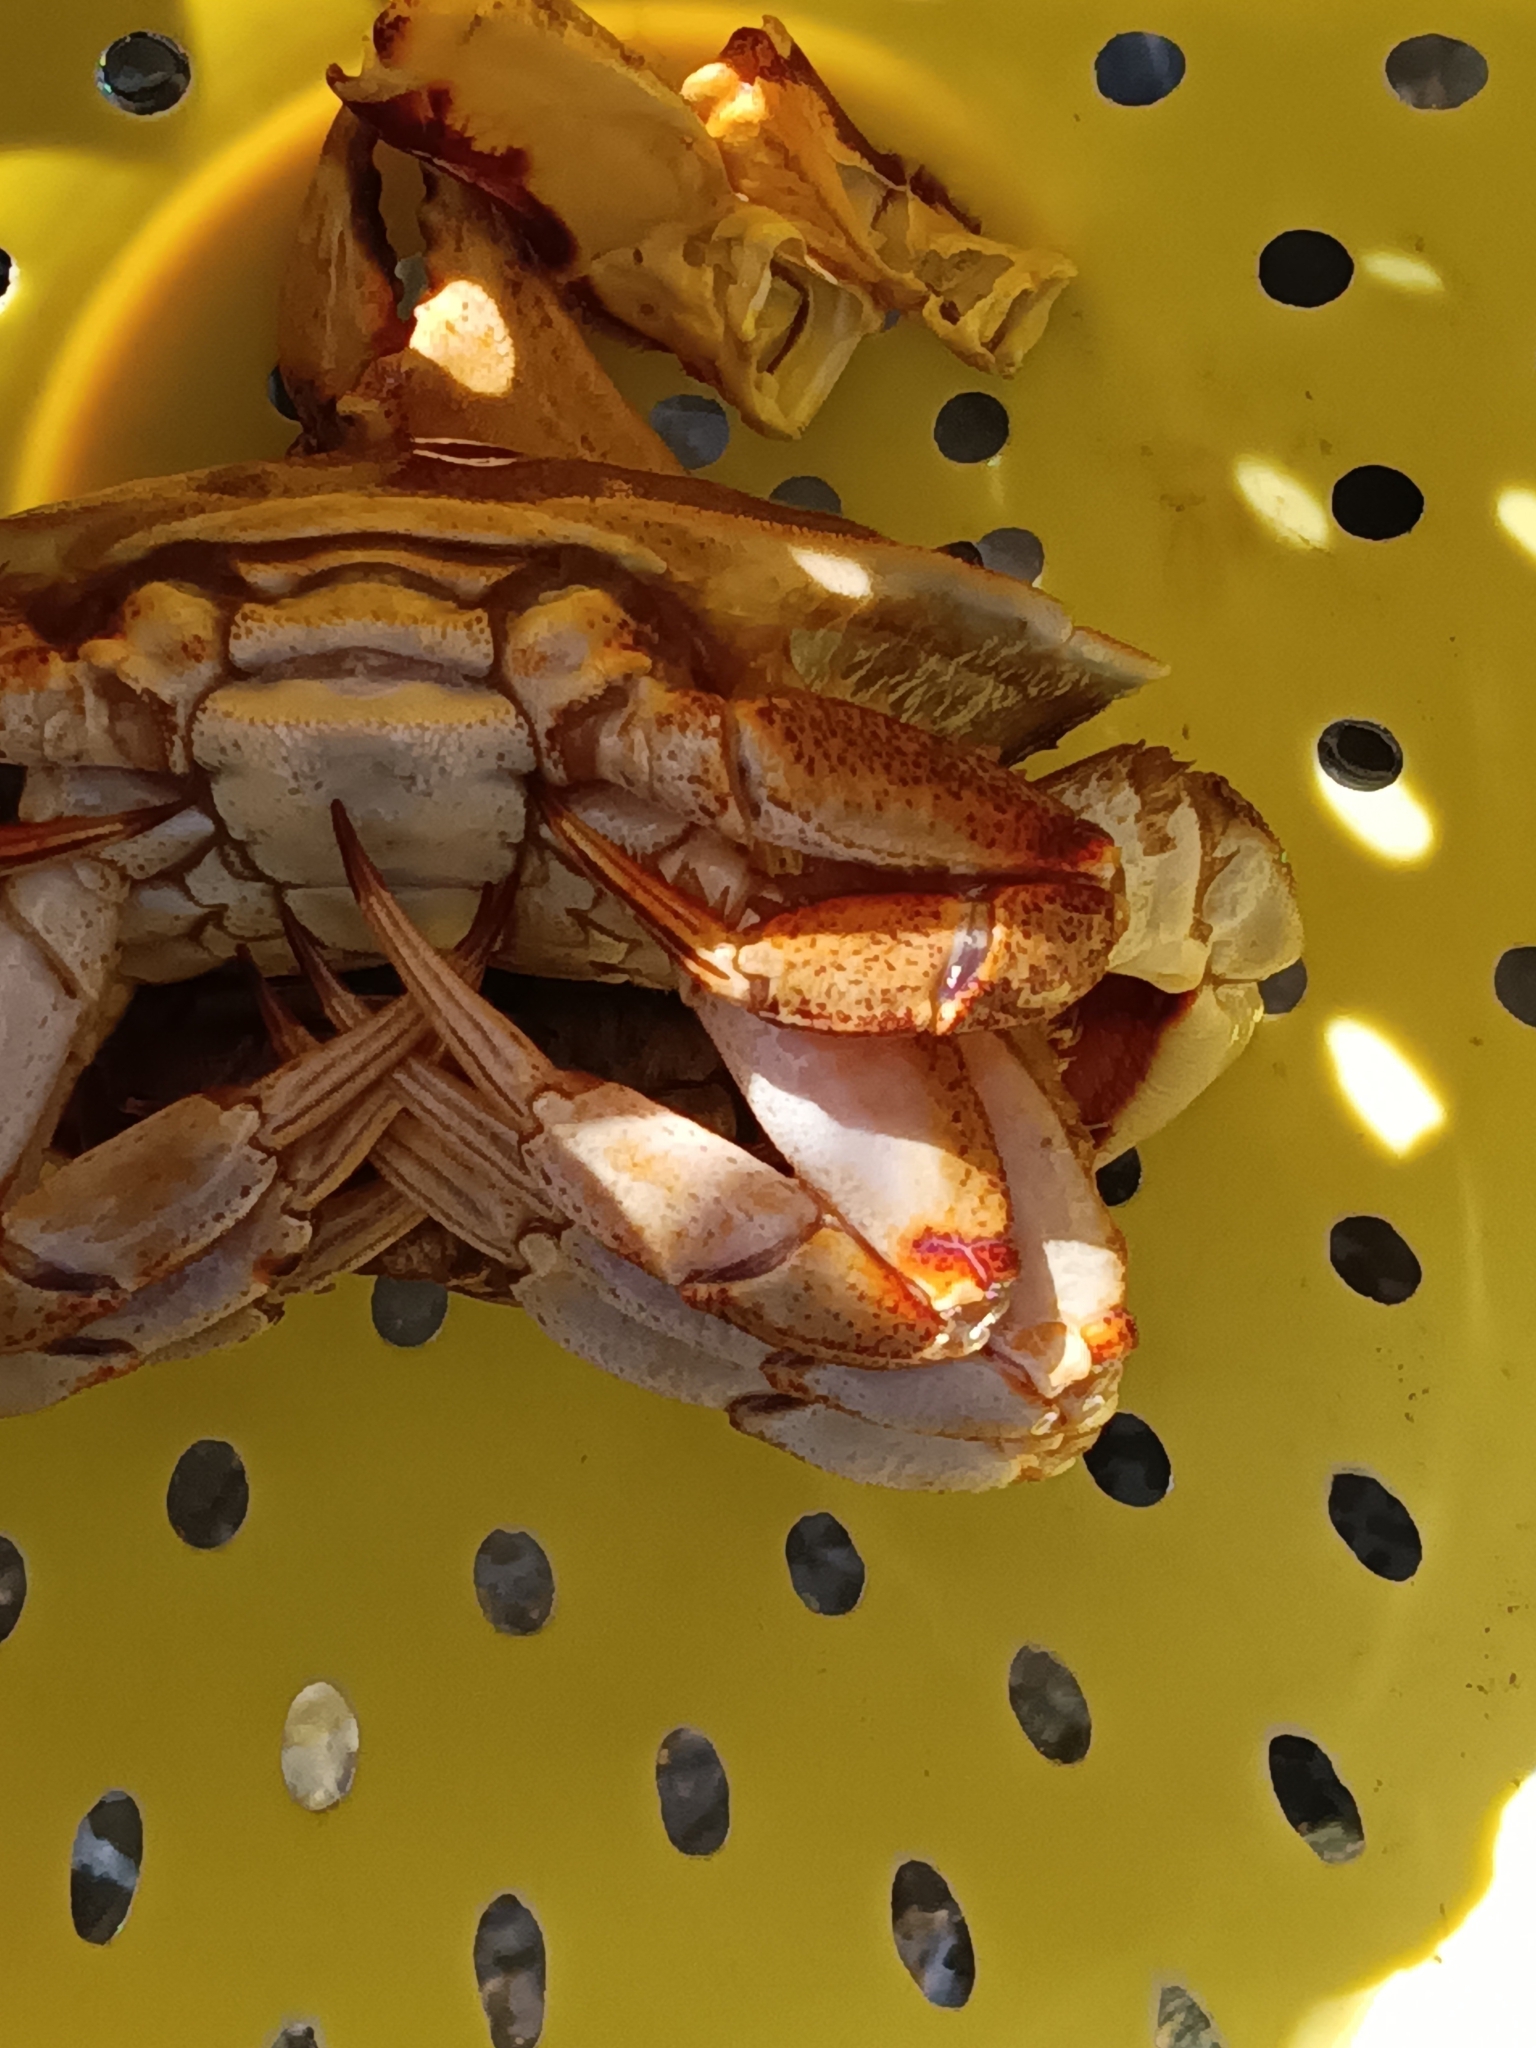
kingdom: Animalia
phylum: Arthropoda
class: Malacostraca
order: Decapoda
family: Cancridae
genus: Cancer
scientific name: Cancer irroratus
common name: Atlantic rock crab
